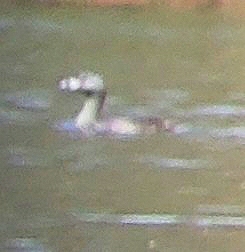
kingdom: Animalia
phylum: Chordata
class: Aves
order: Podicipediformes
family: Podicipedidae
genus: Podilymbus
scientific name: Podilymbus podiceps
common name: Pied-billed grebe
